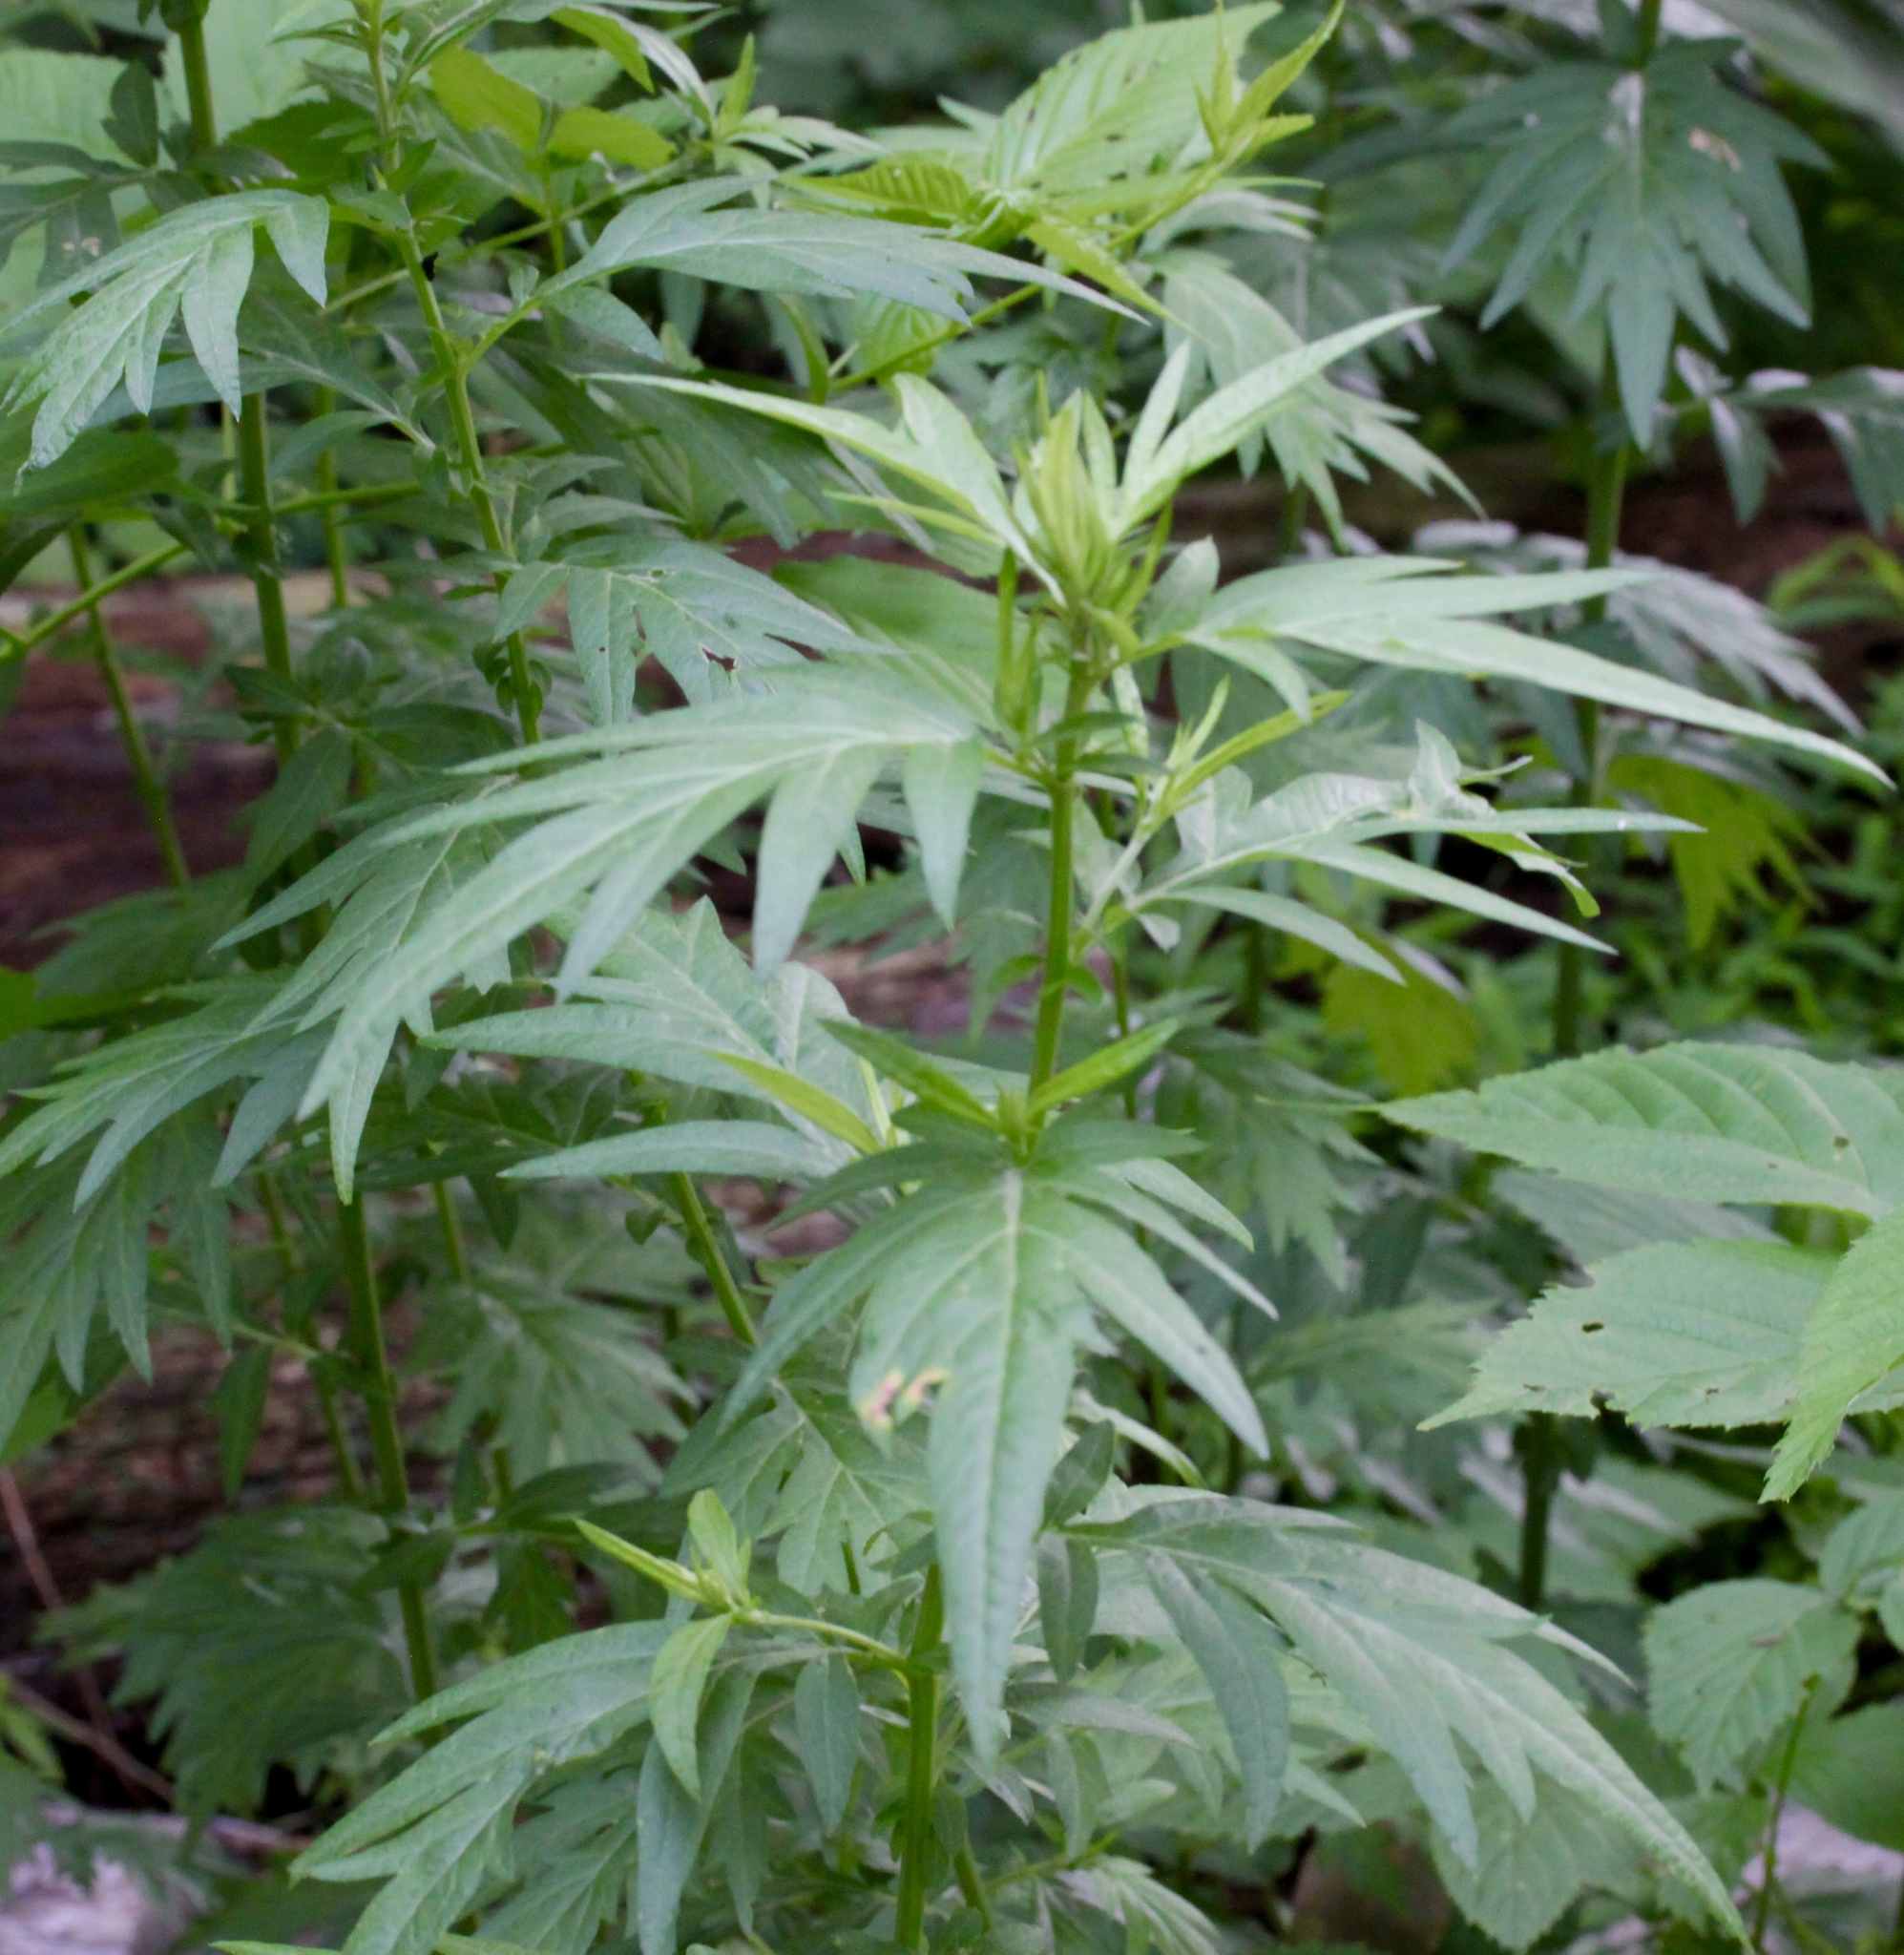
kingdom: Plantae
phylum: Tracheophyta
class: Magnoliopsida
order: Asterales
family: Asteraceae
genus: Artemisia
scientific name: Artemisia vulgaris
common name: Mugwort
